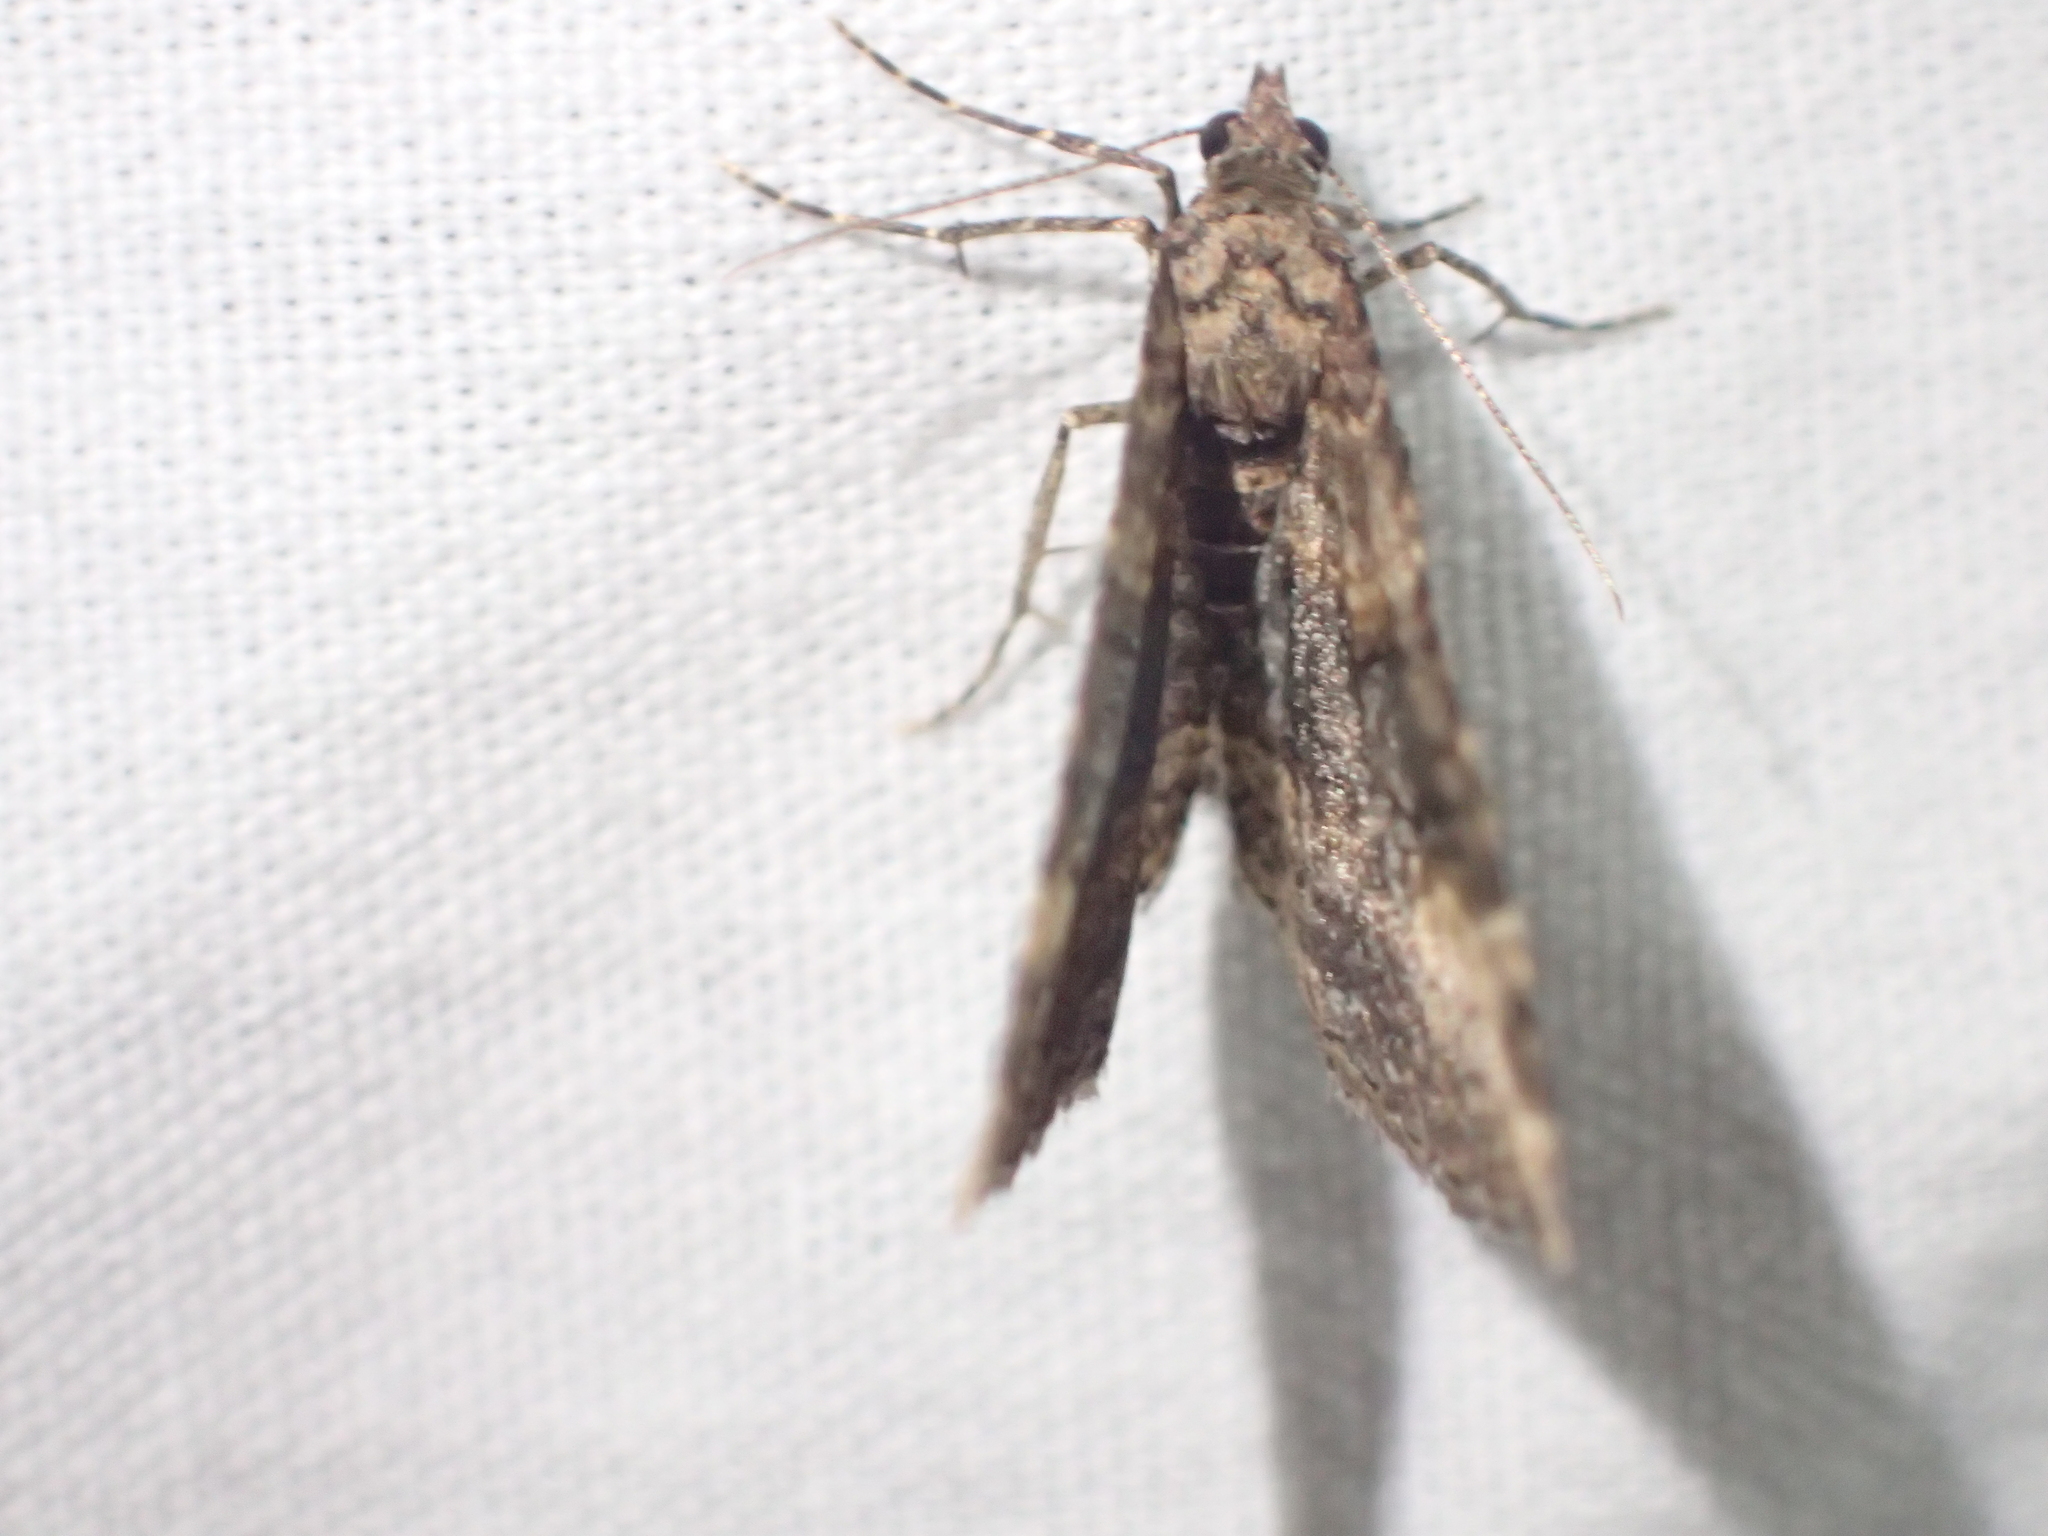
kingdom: Animalia
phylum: Arthropoda
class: Insecta
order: Lepidoptera
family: Geometridae
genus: Epyaxa
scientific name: Epyaxa lucidata
